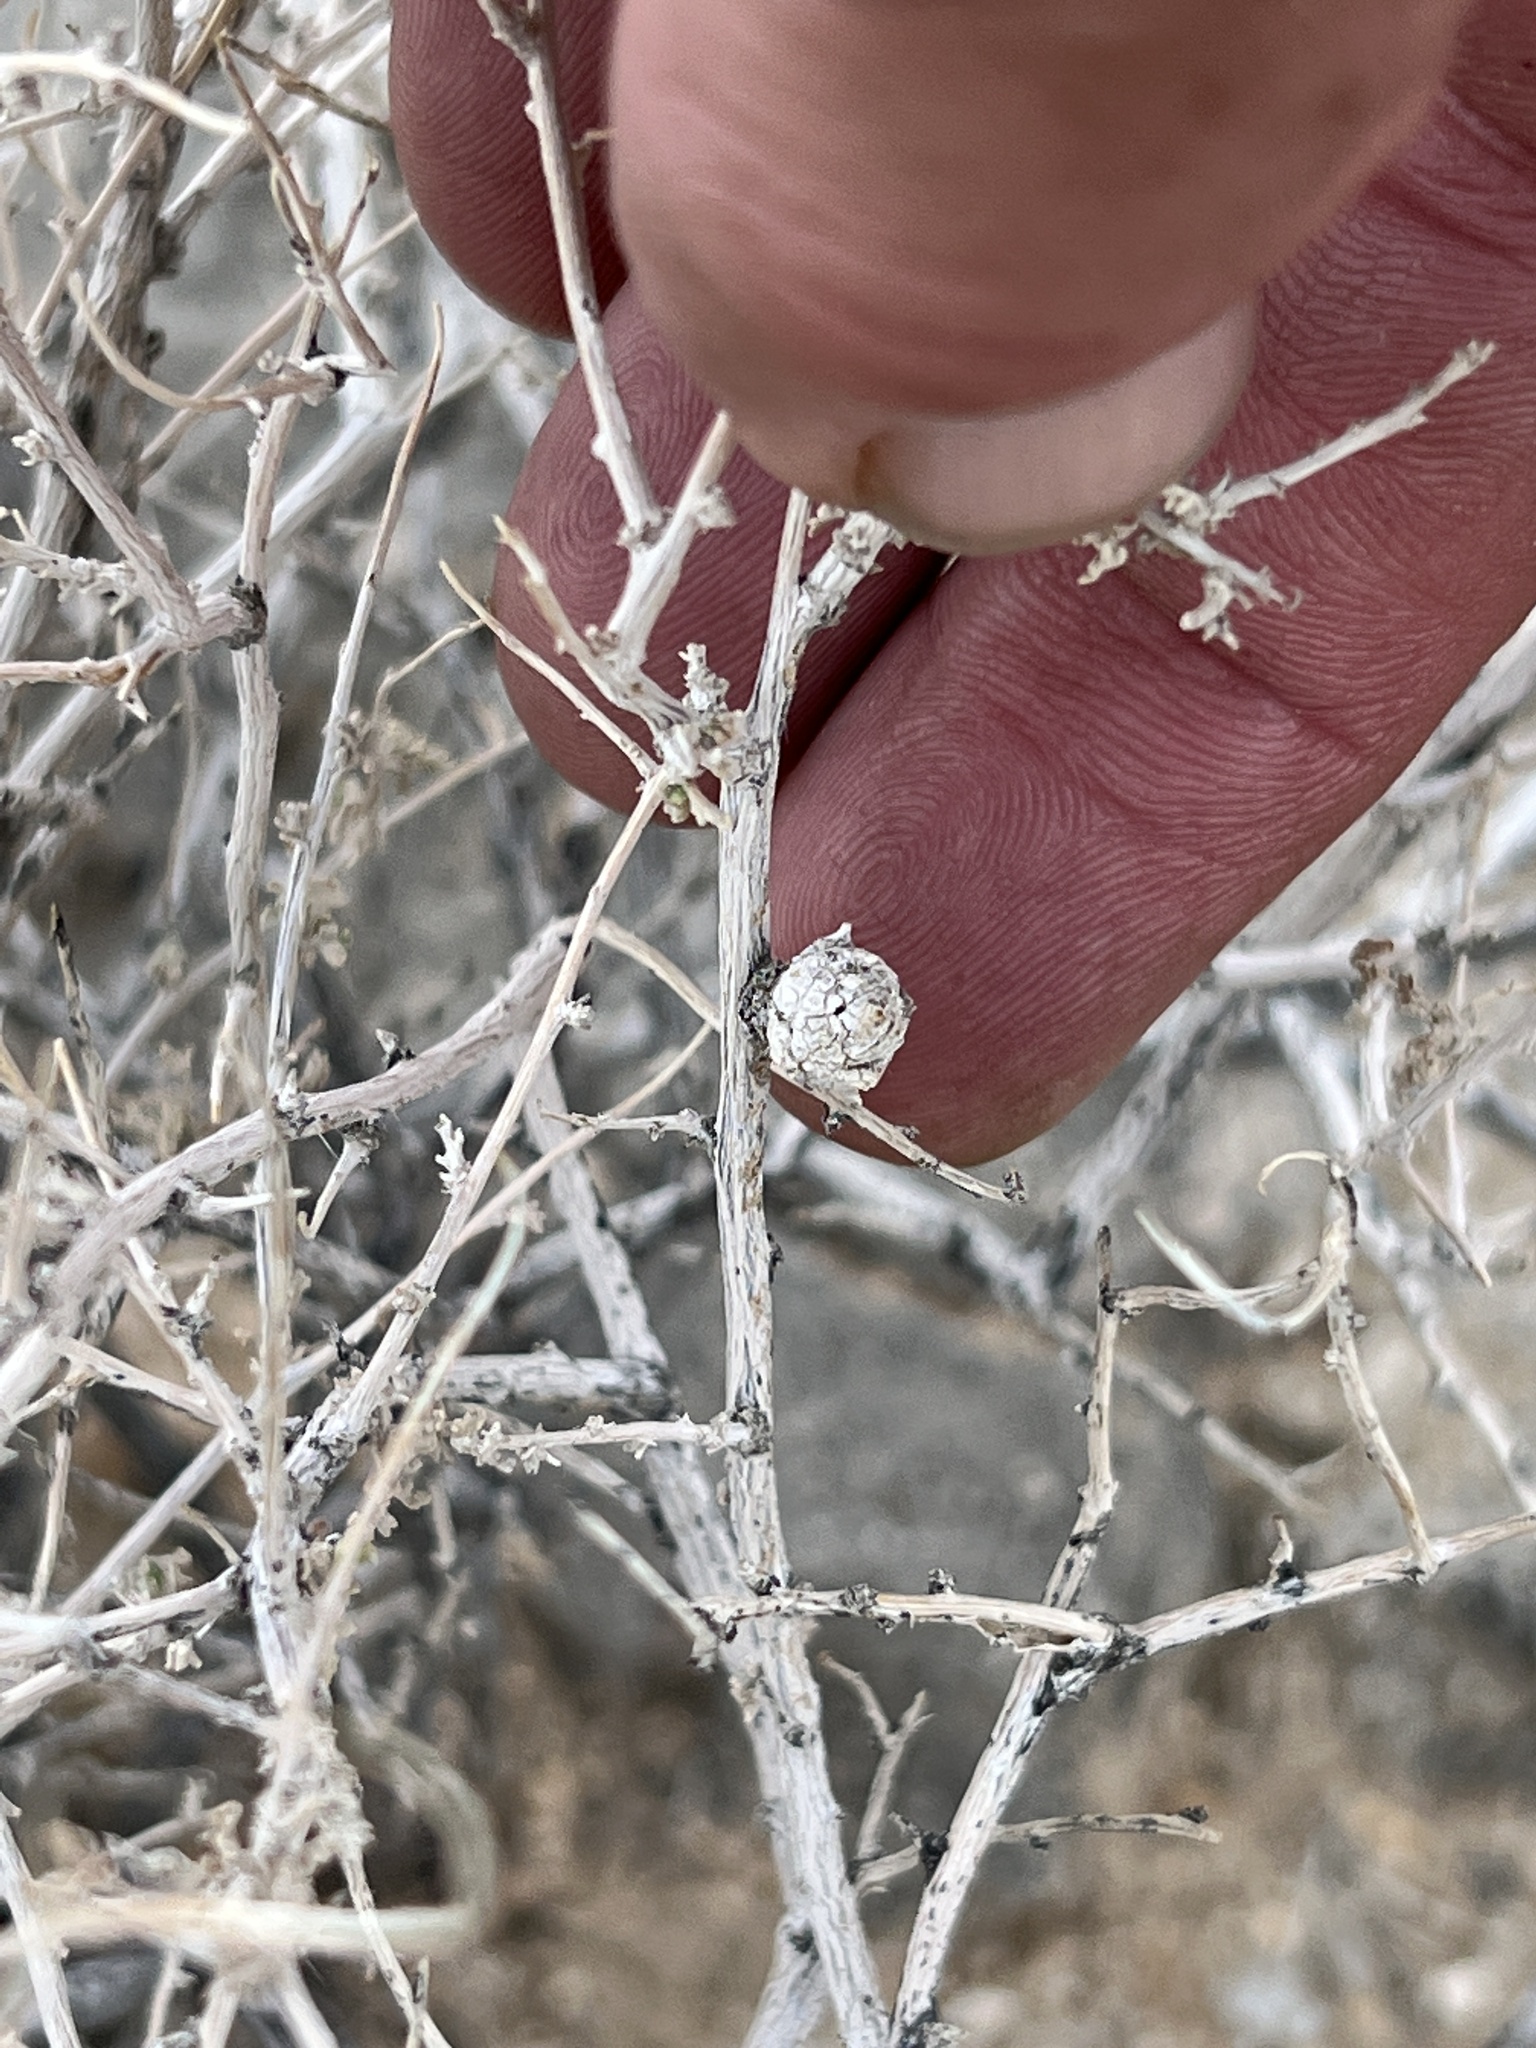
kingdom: Animalia
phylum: Arthropoda
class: Insecta
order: Diptera
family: Tephritidae
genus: Procecidochares
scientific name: Procecidochares kristineae
